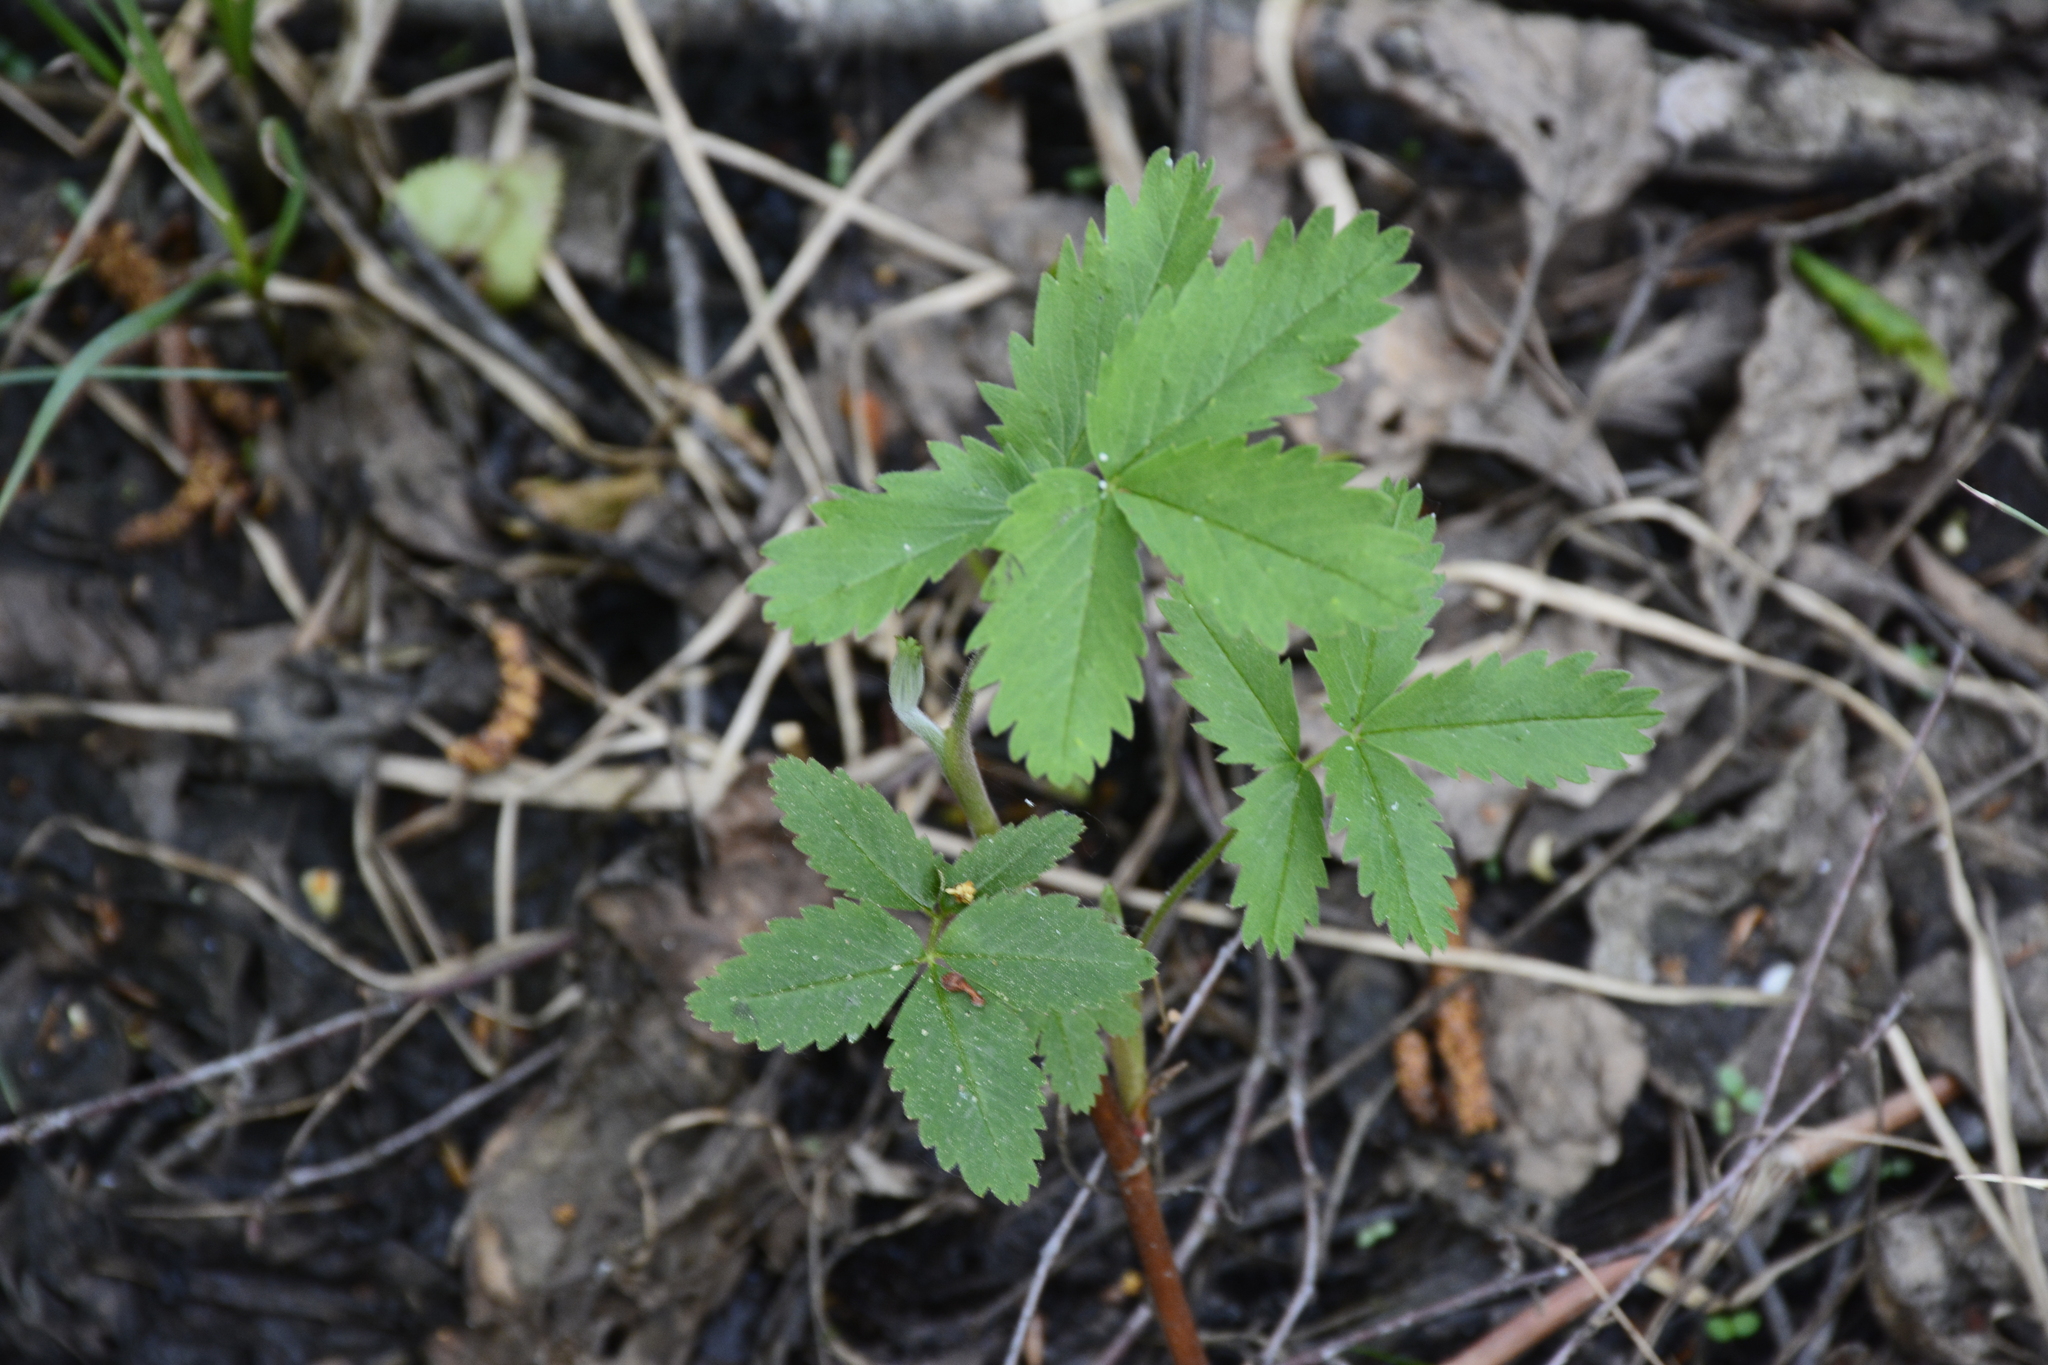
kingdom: Plantae
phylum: Tracheophyta
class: Magnoliopsida
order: Rosales
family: Rosaceae
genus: Comarum
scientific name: Comarum palustre
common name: Marsh cinquefoil
